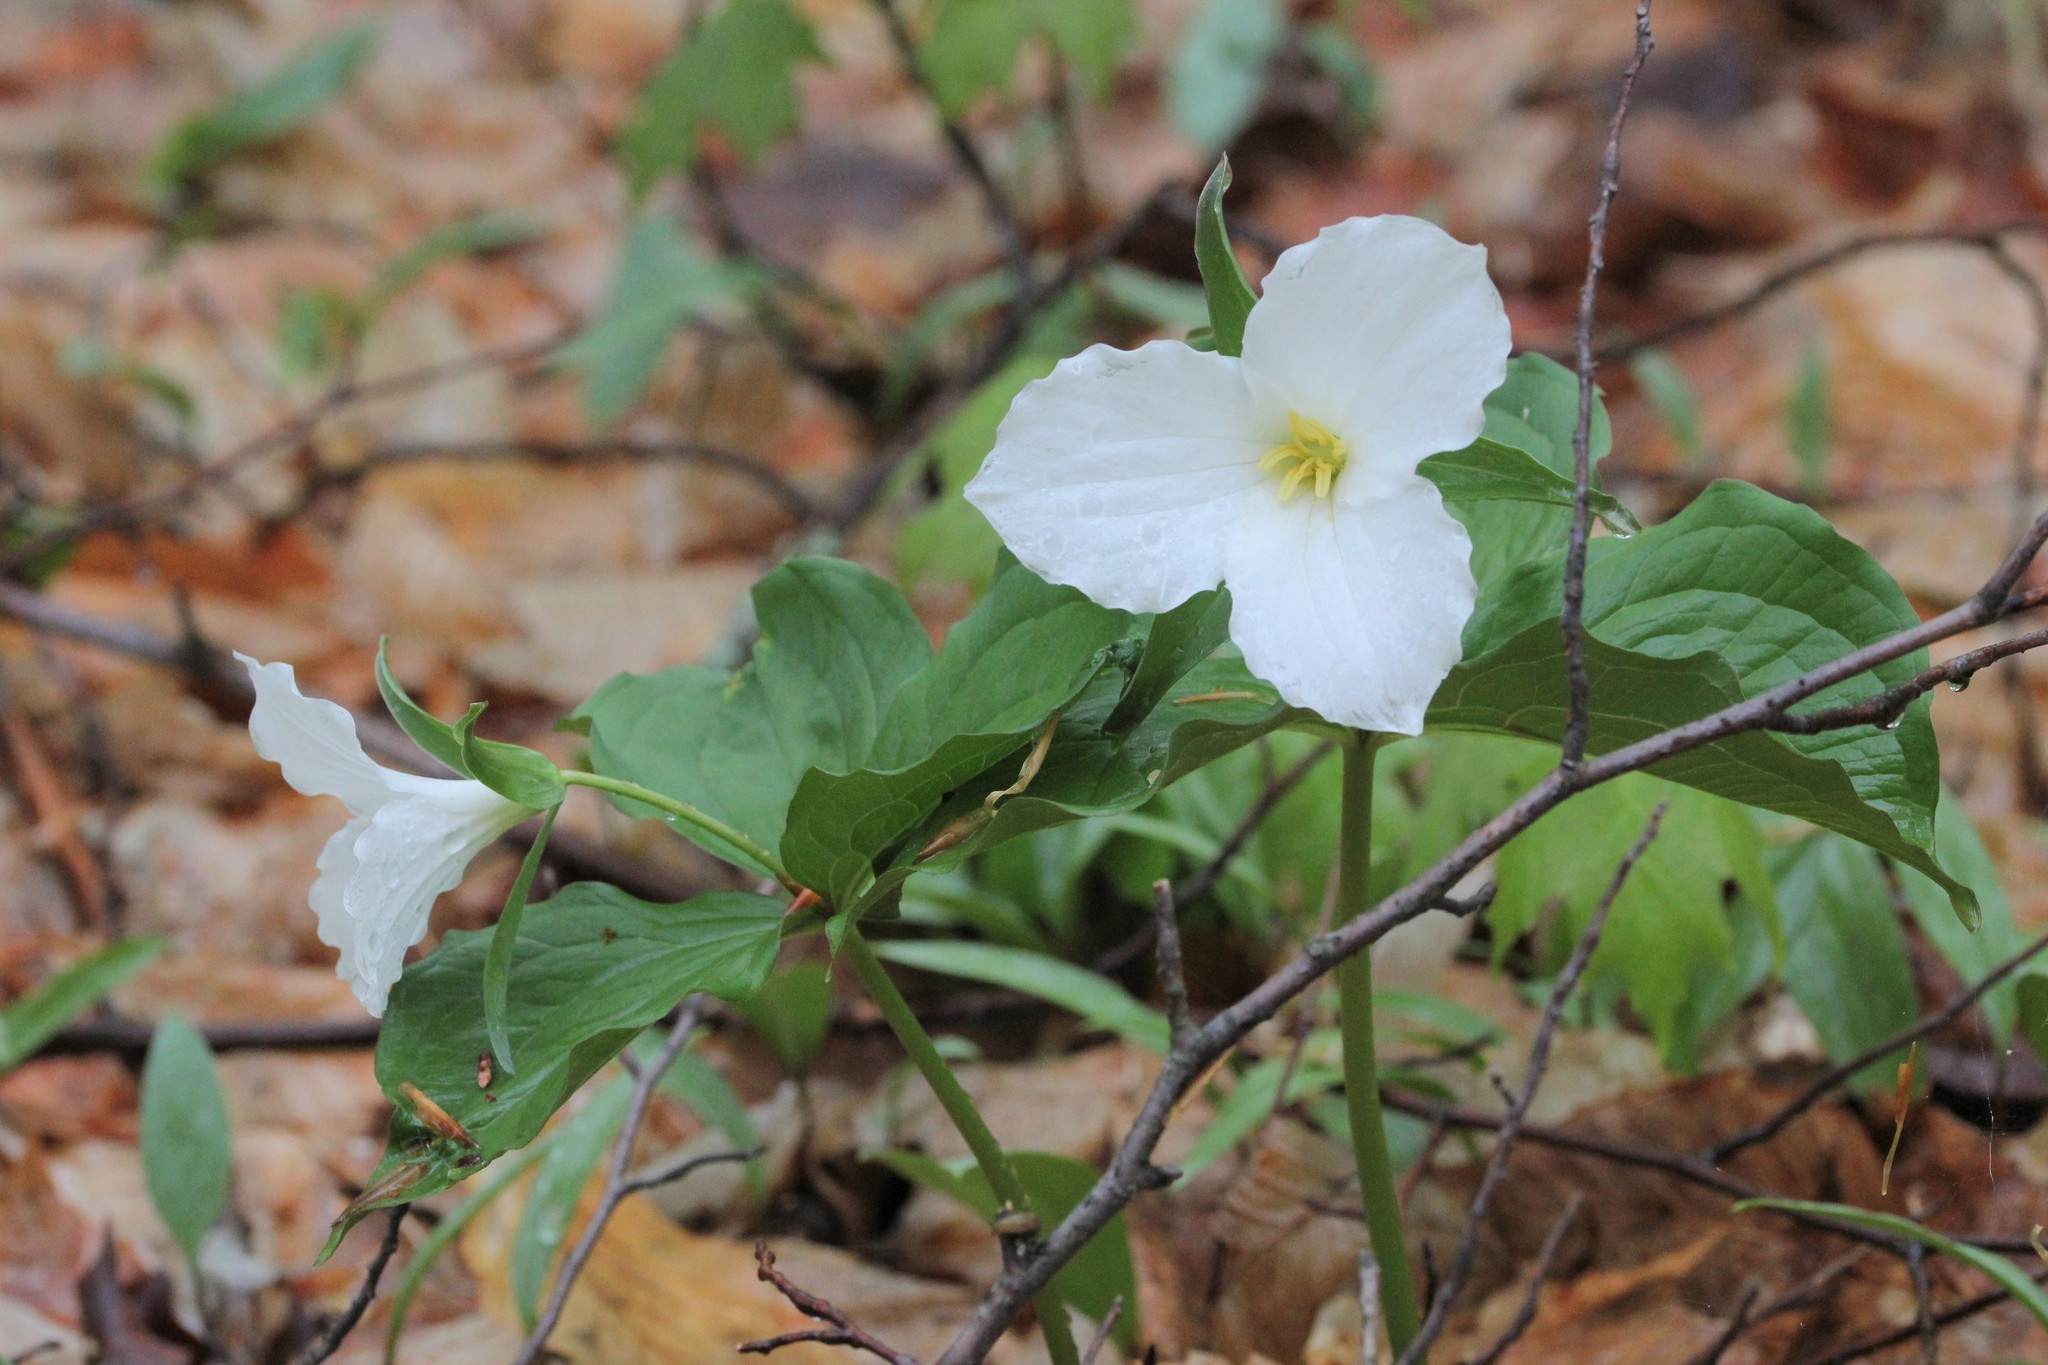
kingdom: Plantae
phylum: Tracheophyta
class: Liliopsida
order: Liliales
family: Melanthiaceae
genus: Trillium
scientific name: Trillium grandiflorum
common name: Great white trillium
